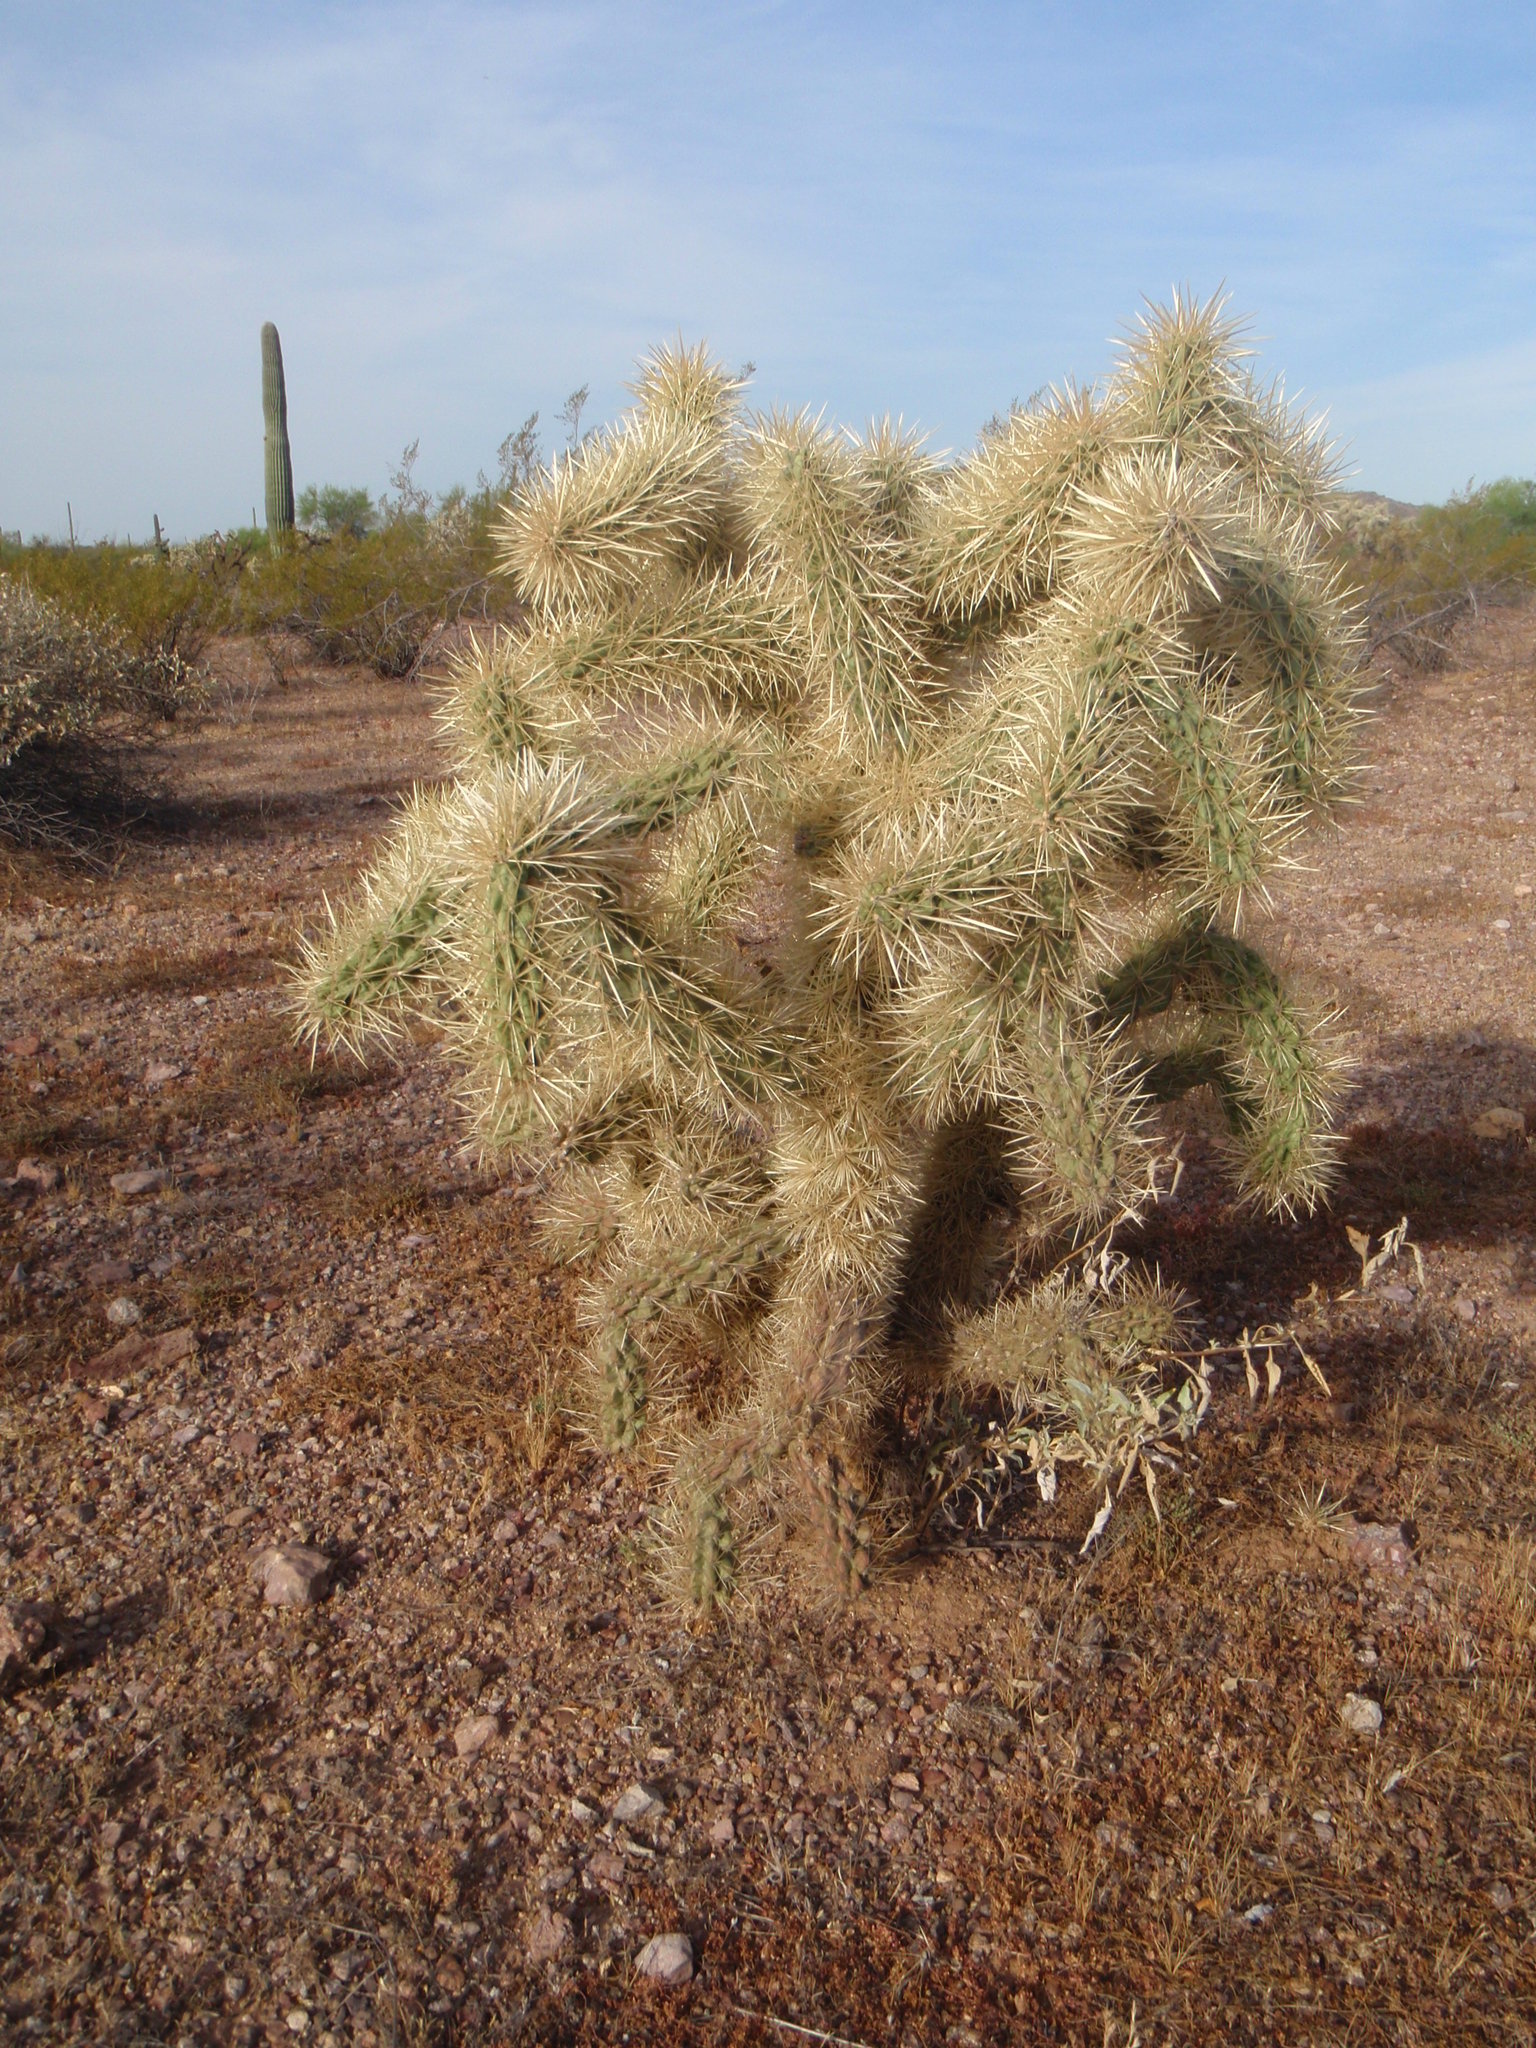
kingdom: Plantae
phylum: Tracheophyta
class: Magnoliopsida
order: Caryophyllales
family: Cactaceae
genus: Cylindropuntia
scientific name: Cylindropuntia fosbergii
